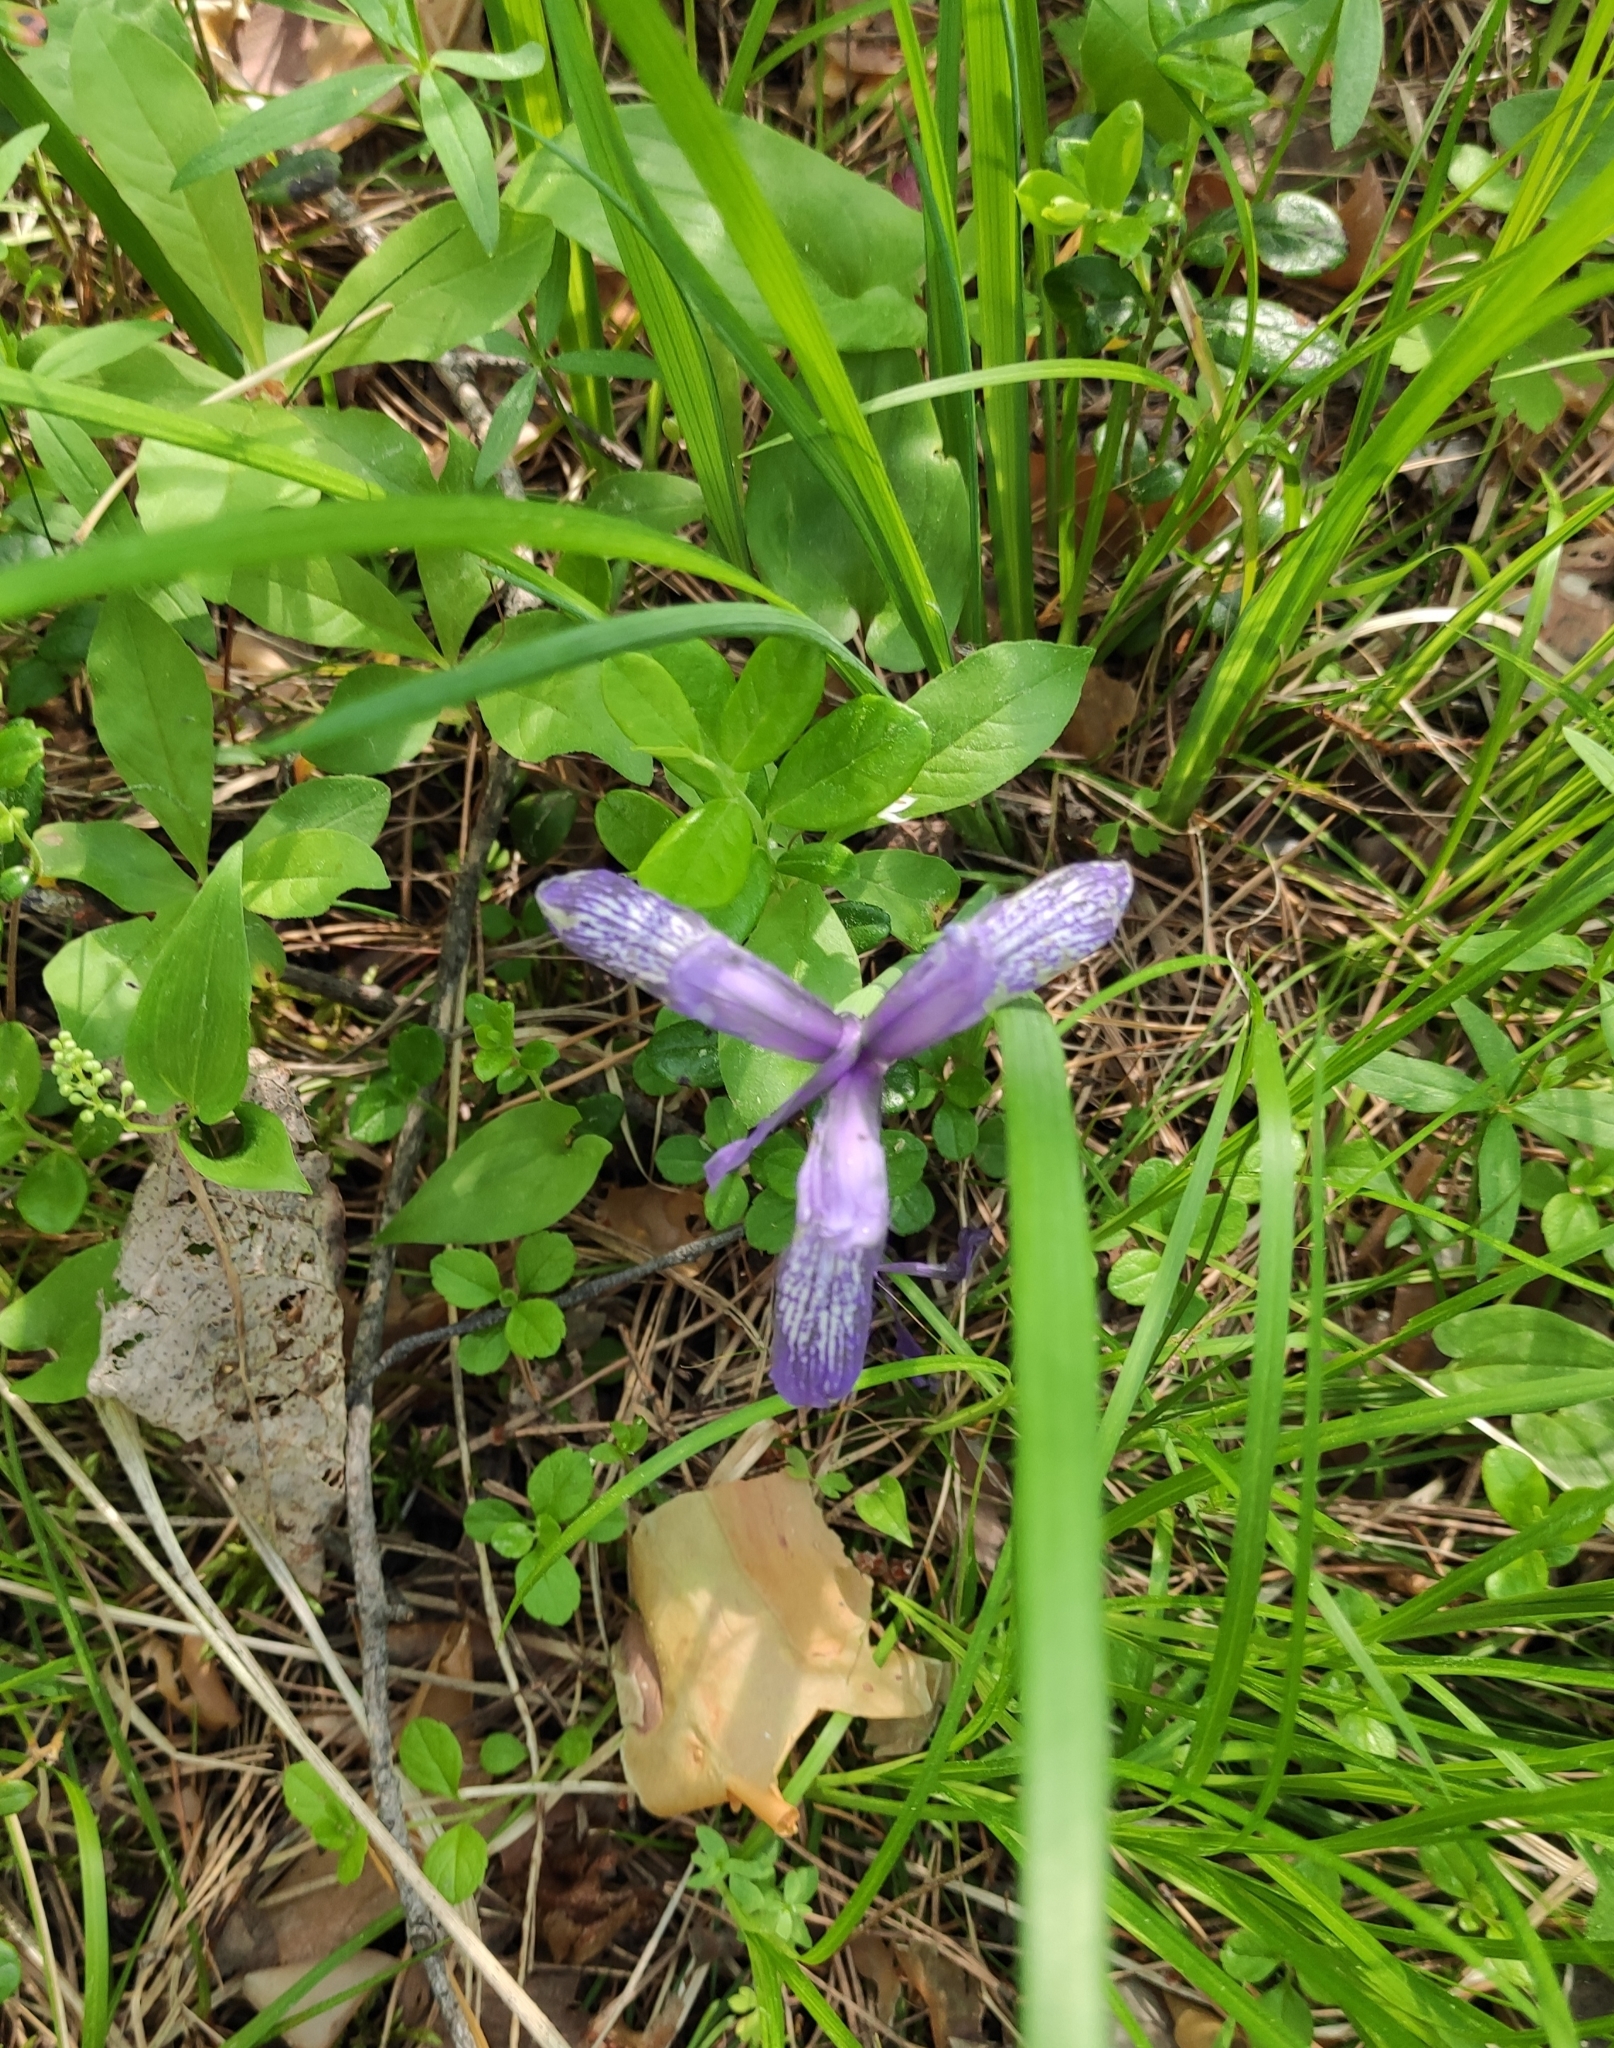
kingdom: Plantae
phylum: Tracheophyta
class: Liliopsida
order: Asparagales
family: Iridaceae
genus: Iris
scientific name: Iris ruthenica
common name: Purple-bract iris
